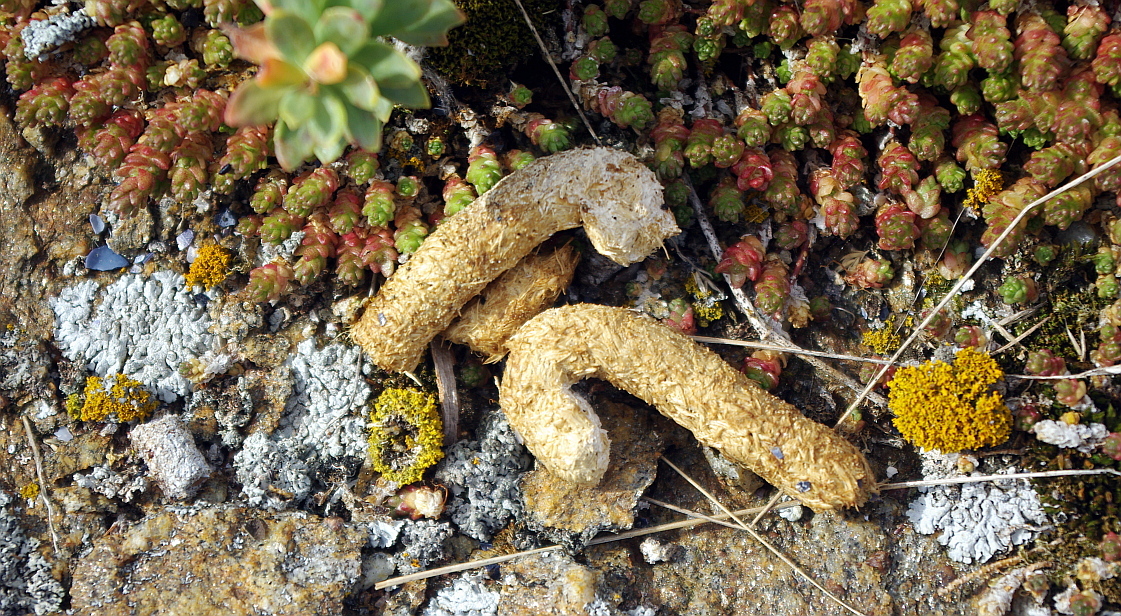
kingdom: Animalia
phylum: Chordata
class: Aves
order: Galliformes
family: Phasianidae
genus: Lagopus
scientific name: Lagopus lagopus
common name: Willow ptarmigan
